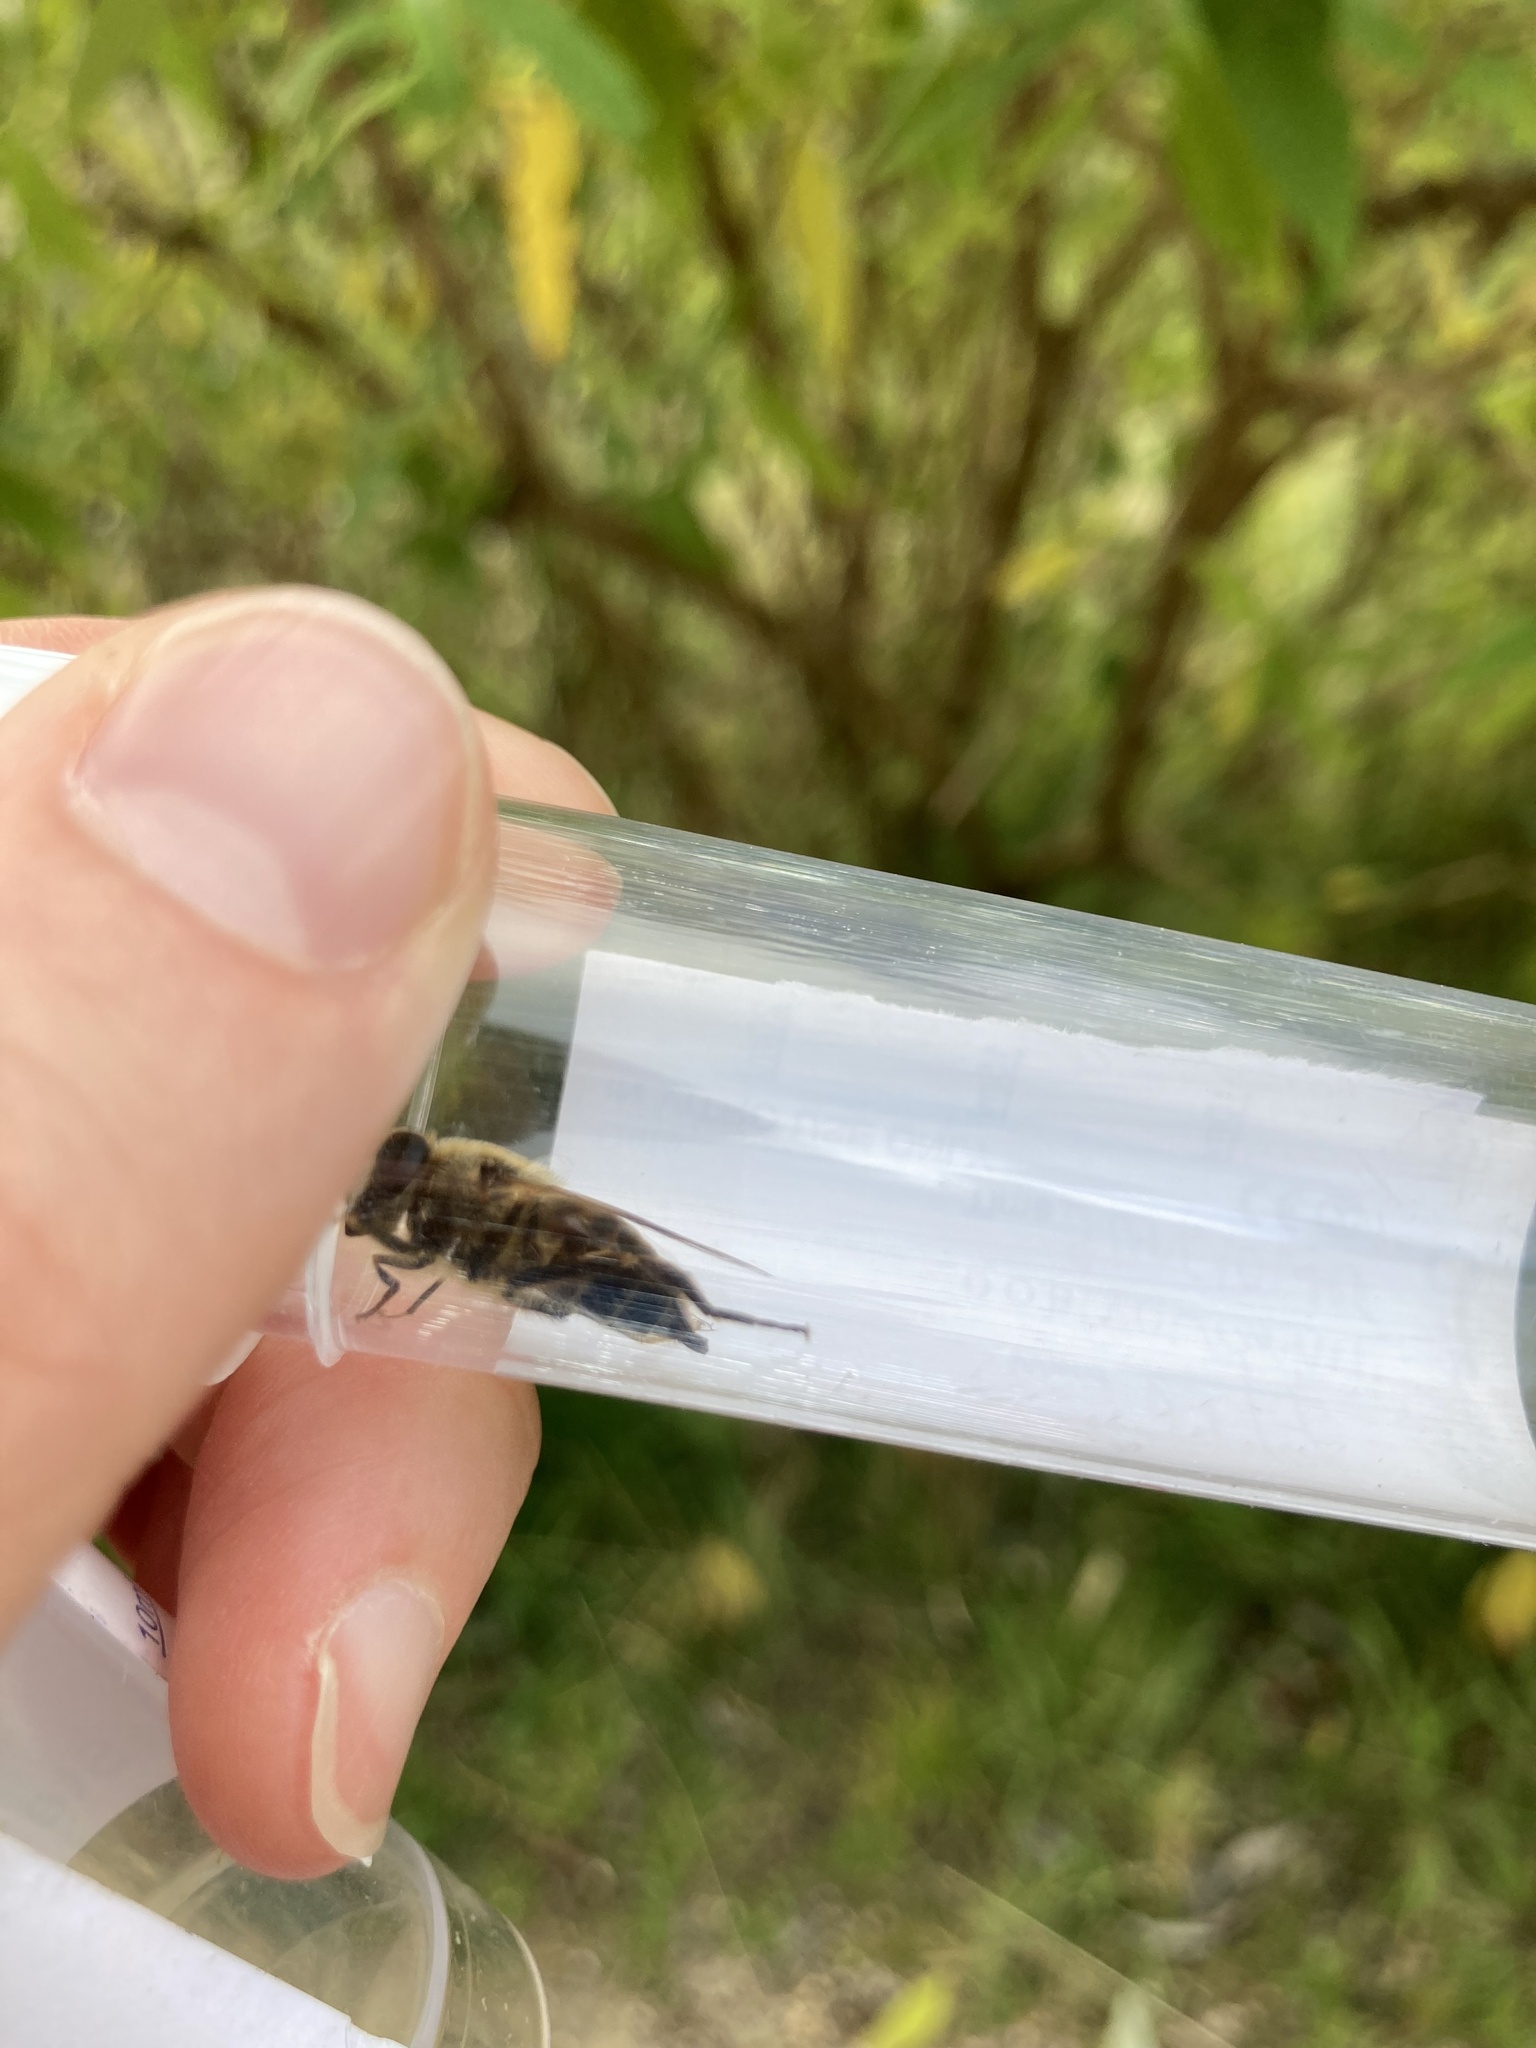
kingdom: Animalia
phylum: Arthropoda
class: Insecta
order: Diptera
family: Syrphidae
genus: Eristalis
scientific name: Eristalis tenax
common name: Drone fly
